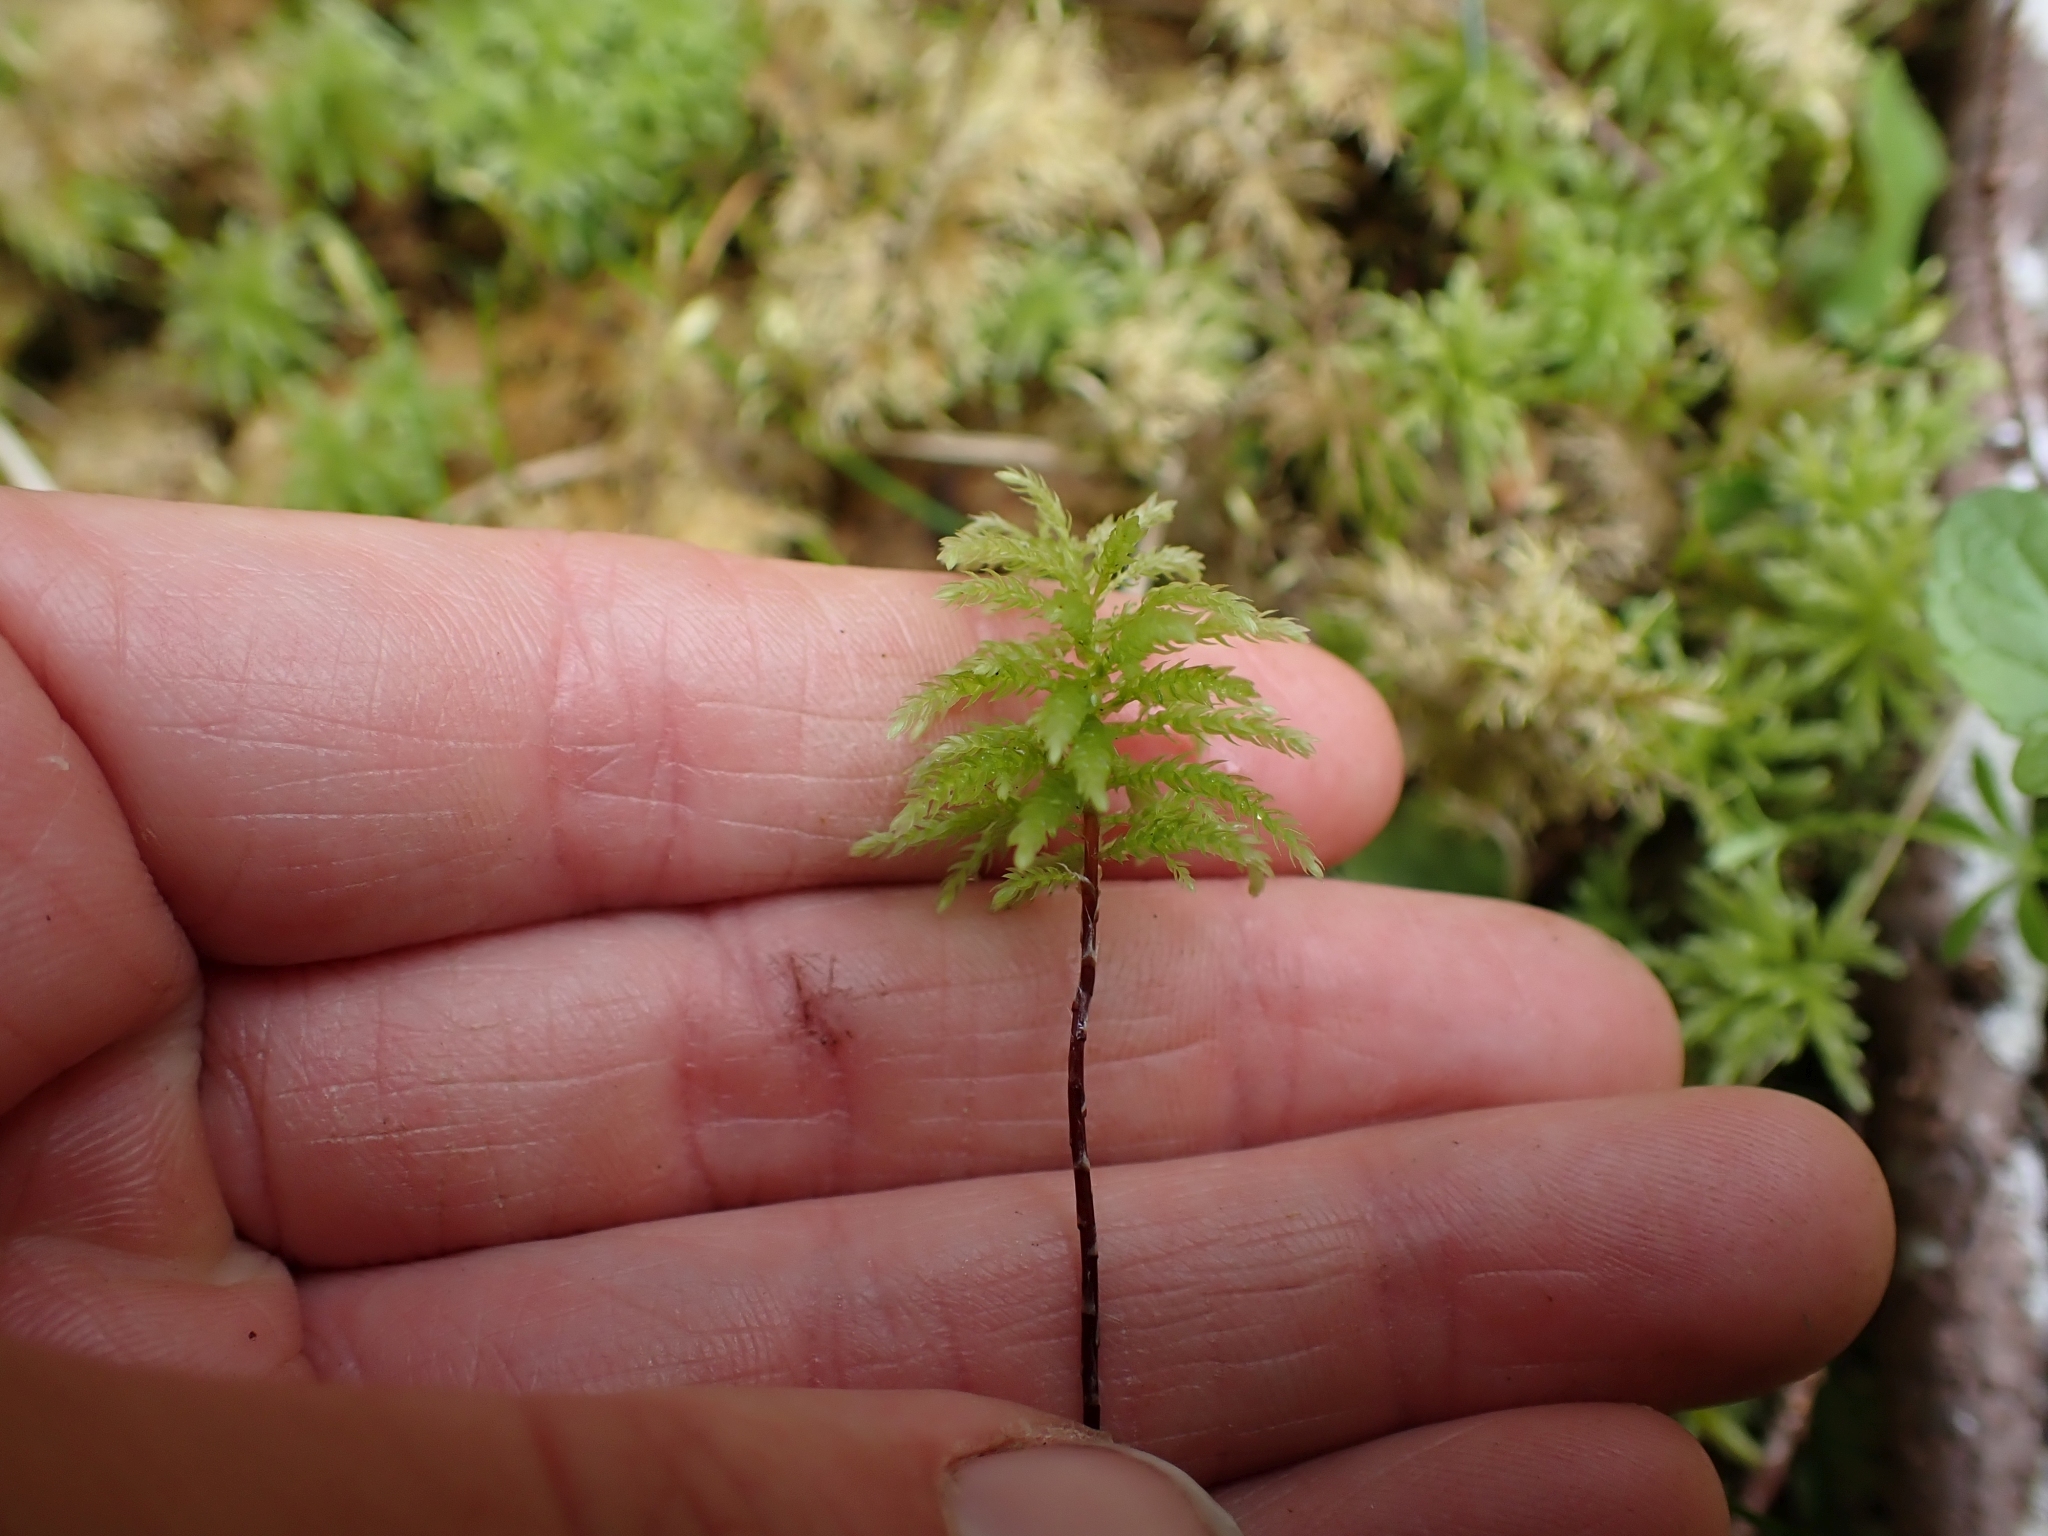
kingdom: Plantae
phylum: Bryophyta
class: Bryopsida
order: Bryales
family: Mniaceae
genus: Leucolepis
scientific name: Leucolepis acanthoneura
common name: Leucolepis umbrella moss
